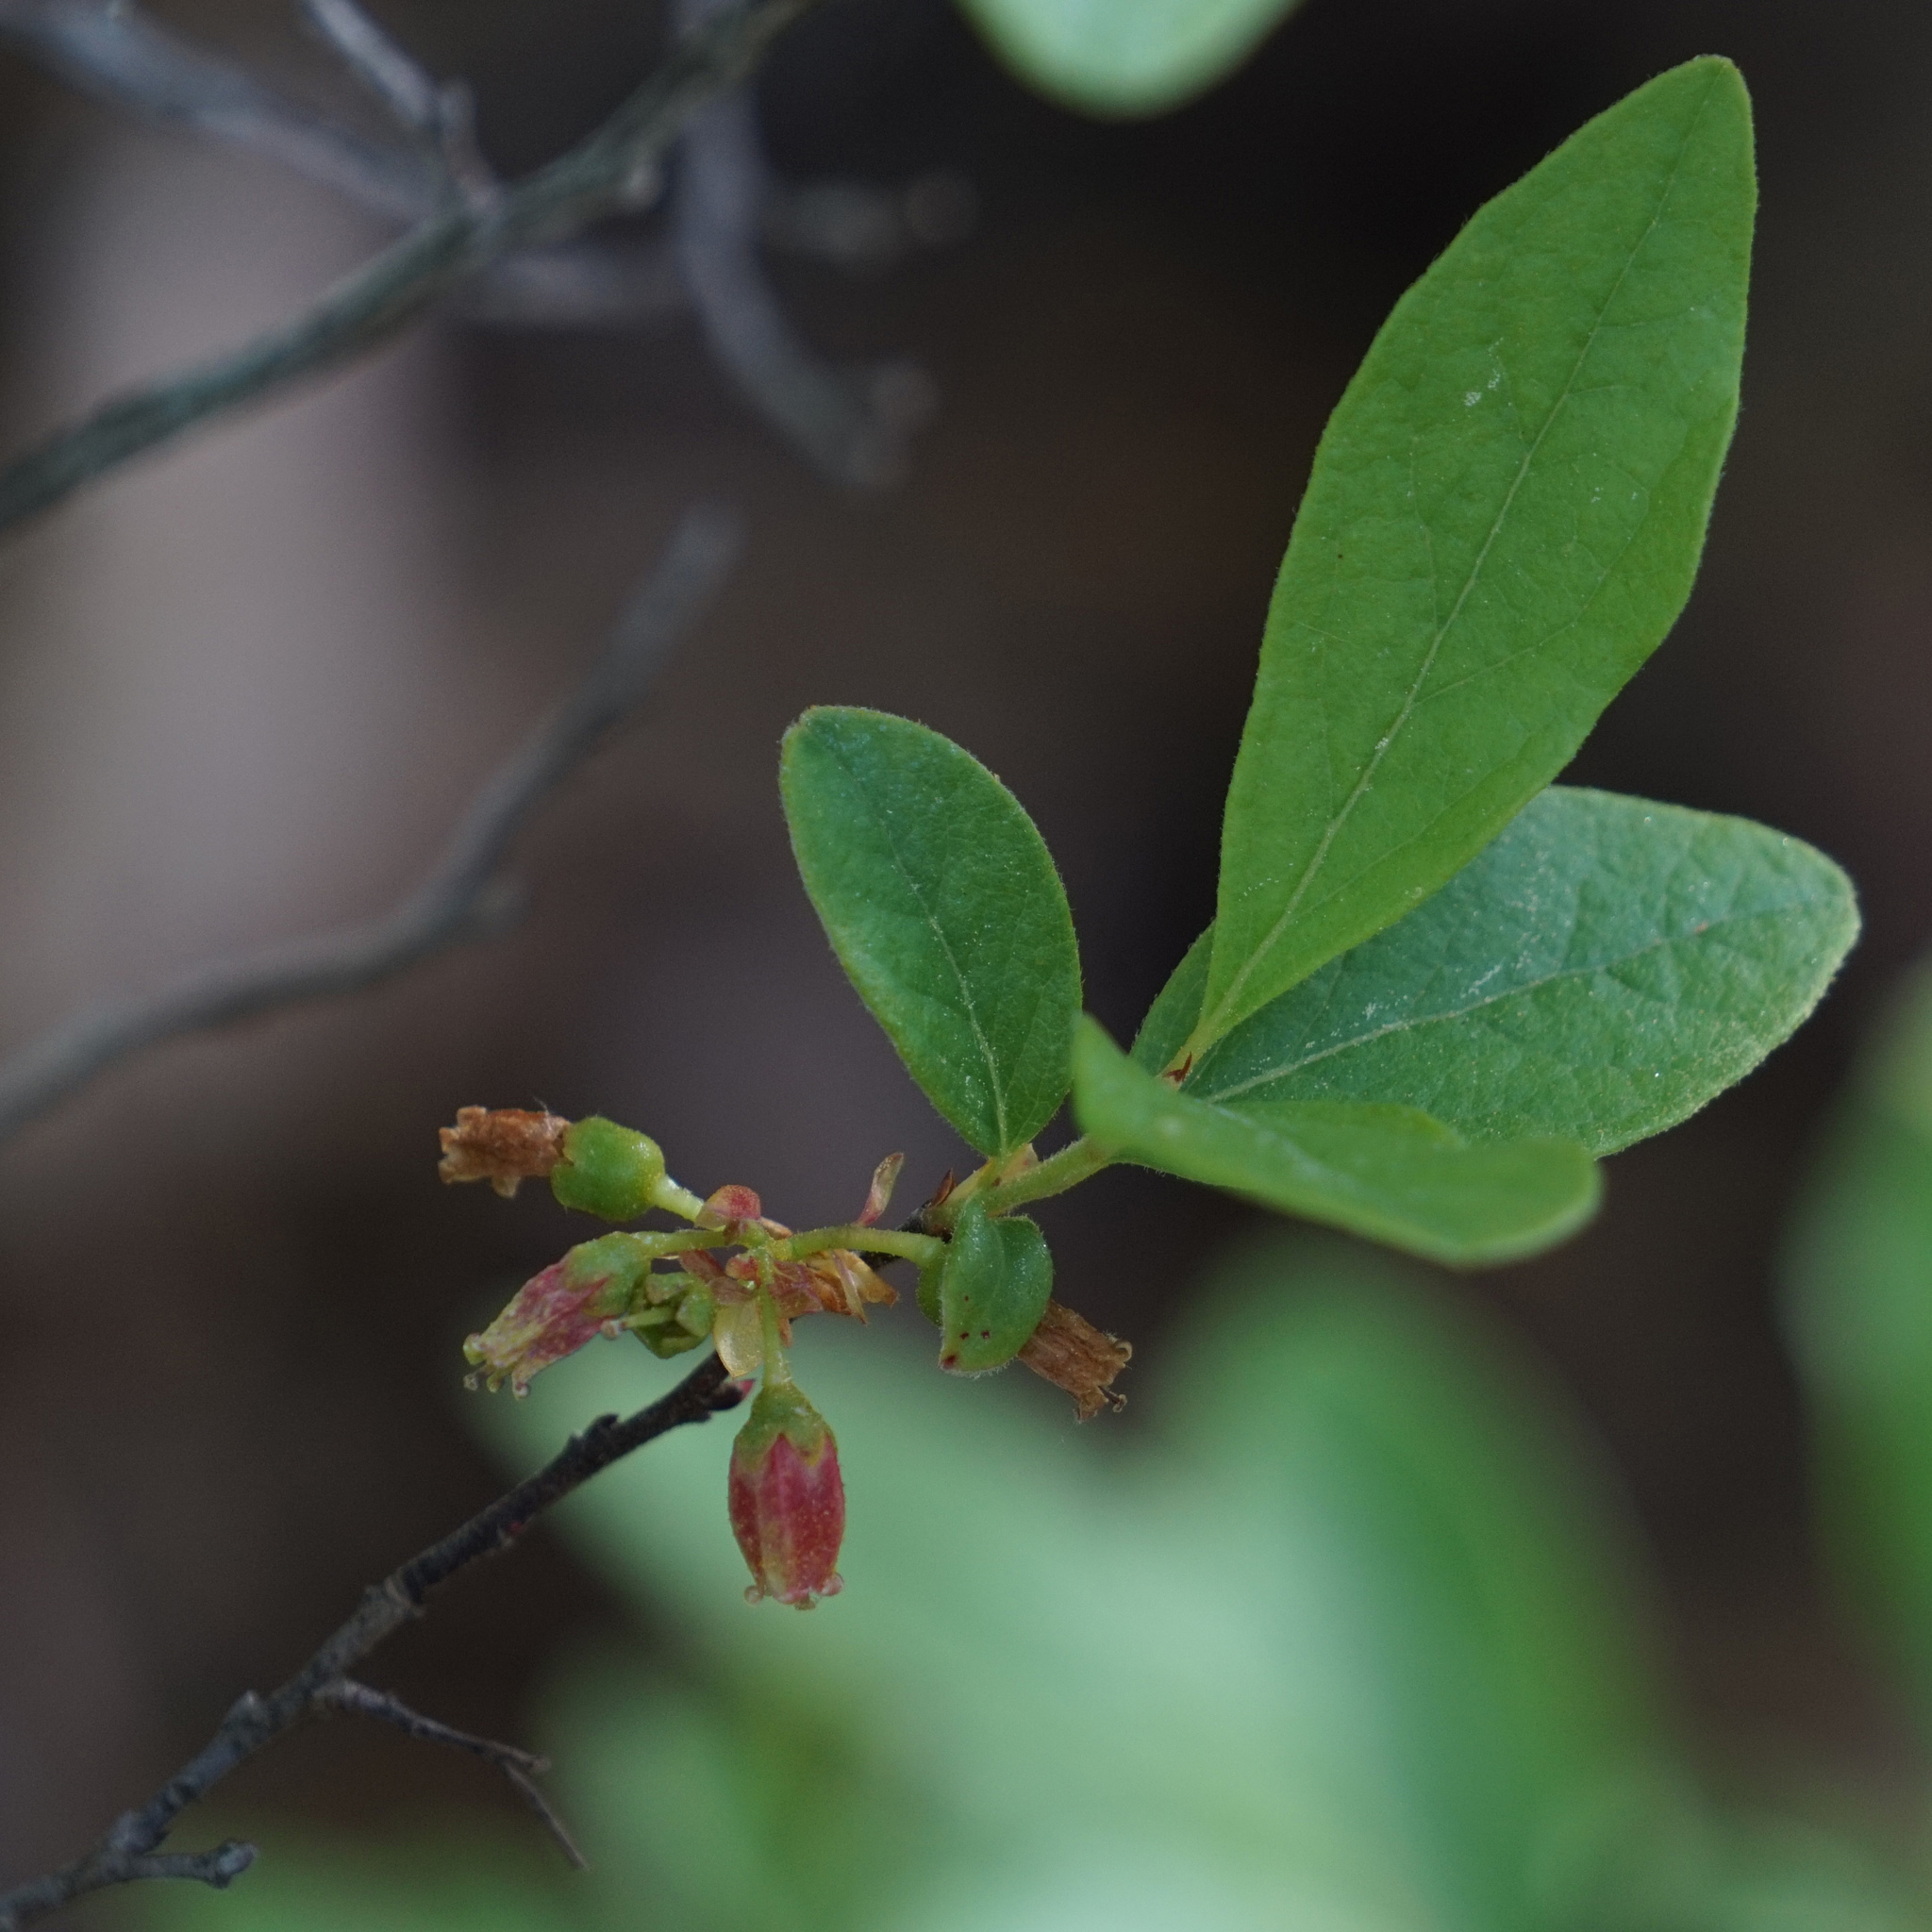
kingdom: Plantae
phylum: Tracheophyta
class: Magnoliopsida
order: Ericales
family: Ericaceae
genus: Gaylussacia
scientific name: Gaylussacia baccata
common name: Black huckleberry
